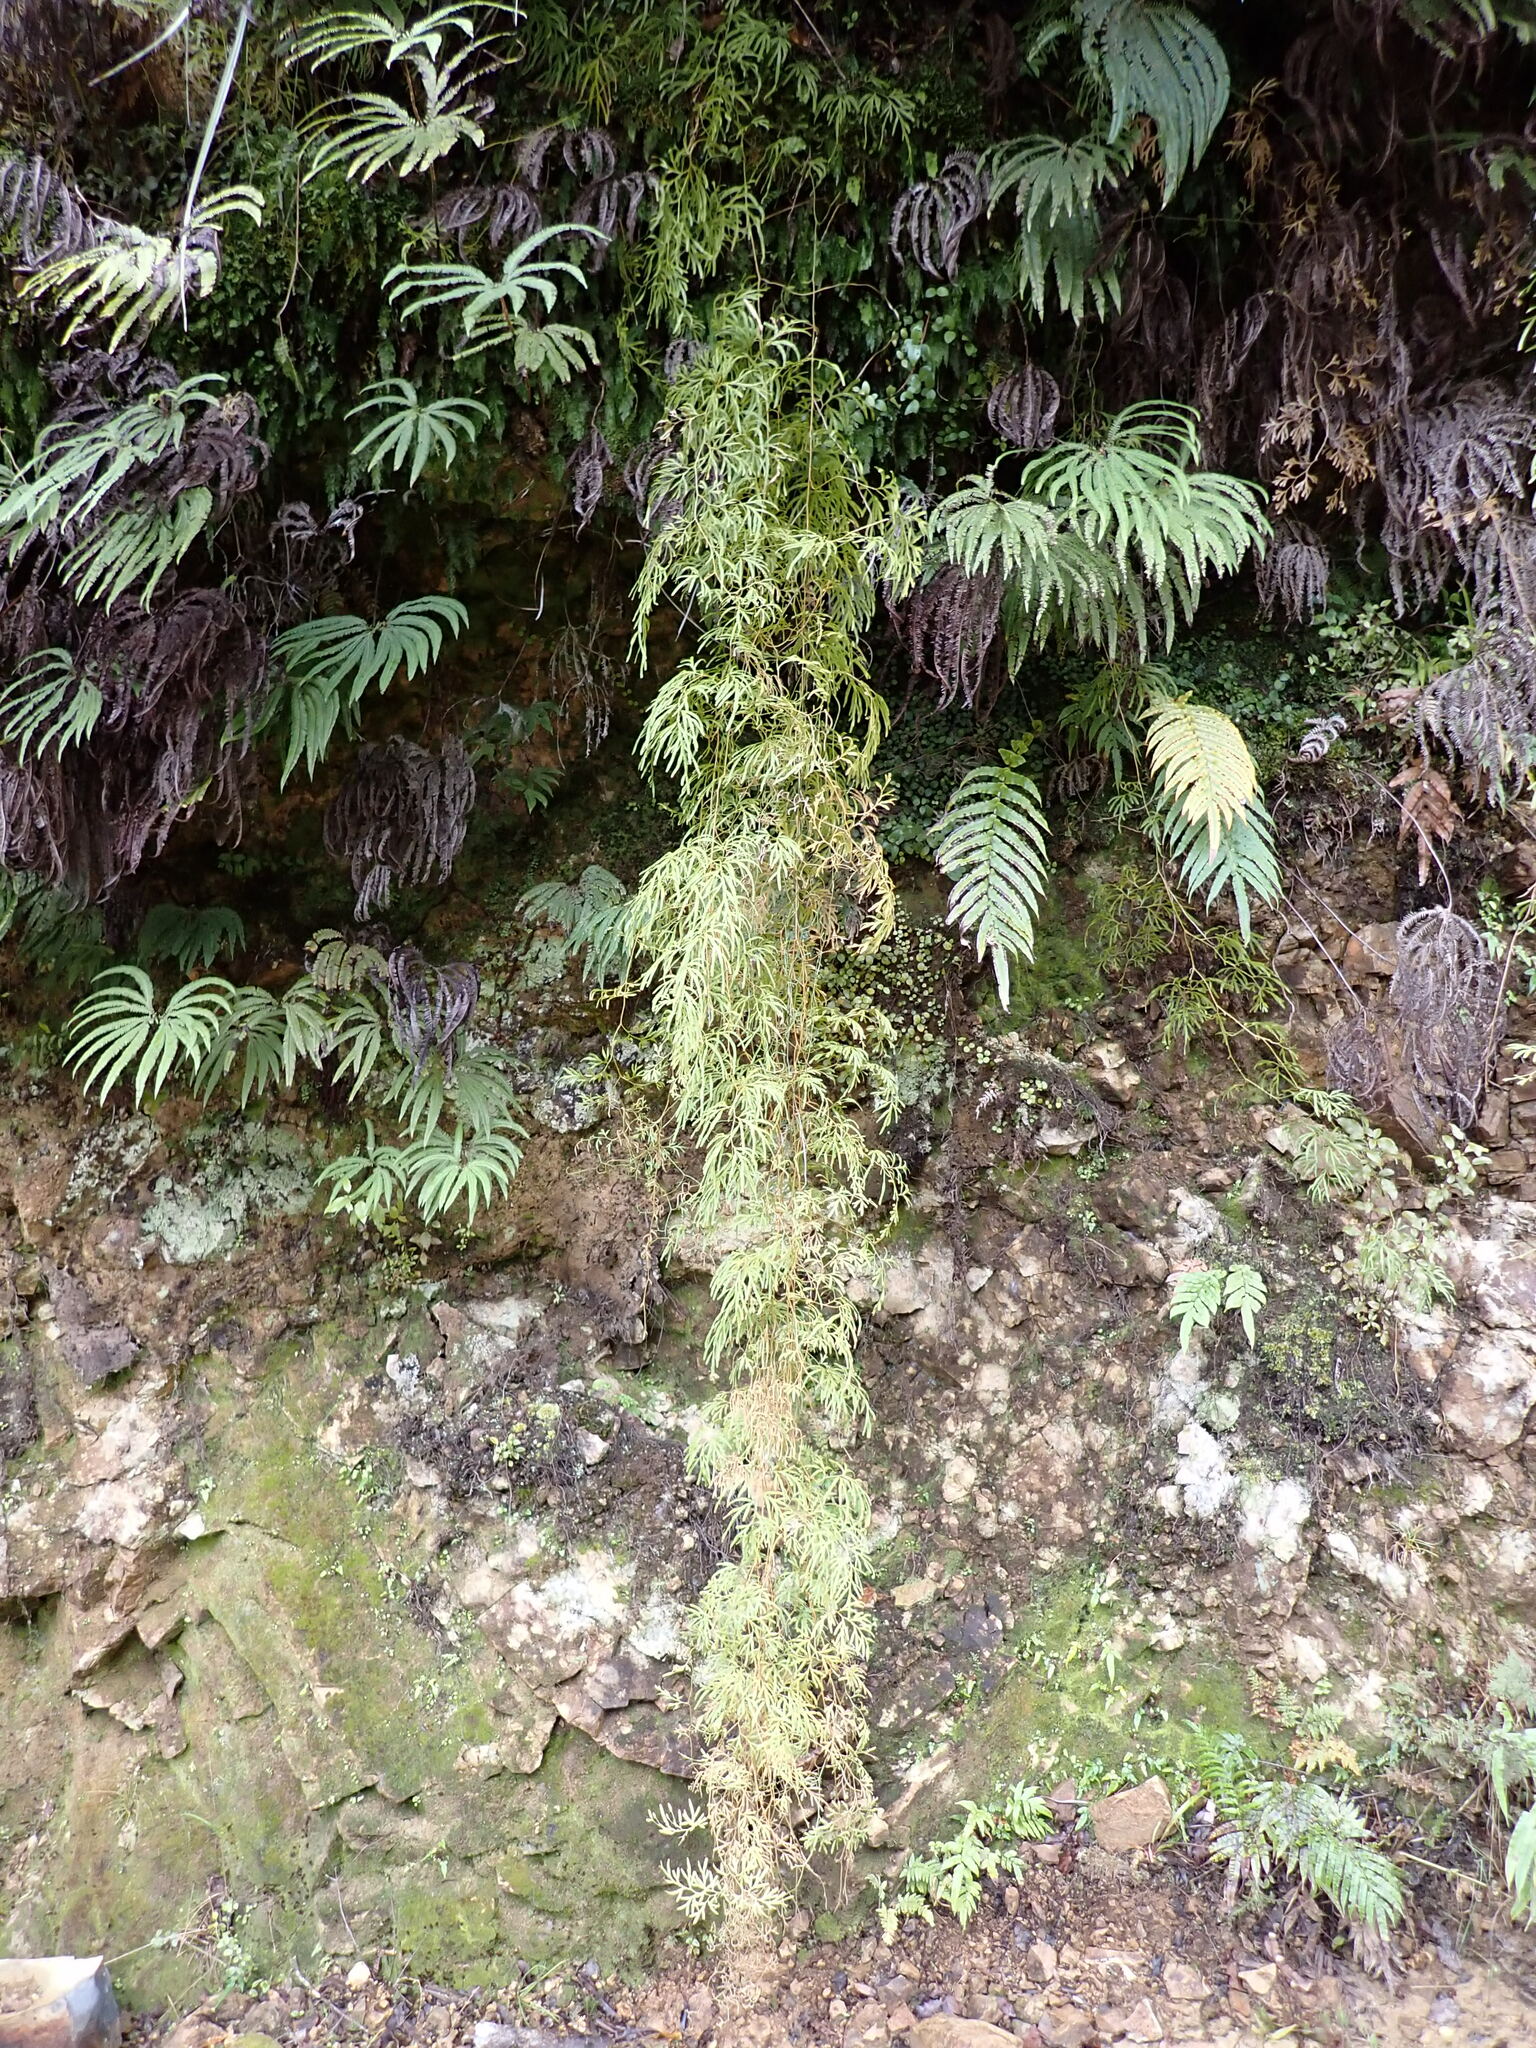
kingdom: Plantae
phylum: Tracheophyta
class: Lycopodiopsida
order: Lycopodiales
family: Lycopodiaceae
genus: Lycopodium
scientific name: Lycopodium volubile
